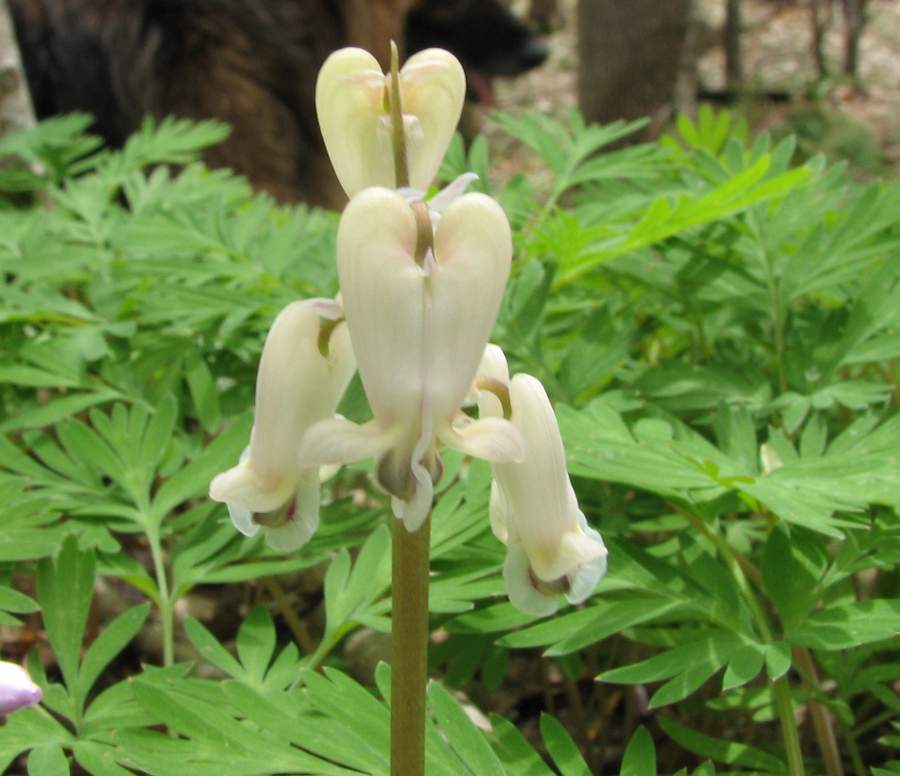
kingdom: Plantae
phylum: Tracheophyta
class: Magnoliopsida
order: Ranunculales
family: Papaveraceae
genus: Dicentra
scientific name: Dicentra canadensis
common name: Squirrel-corn
